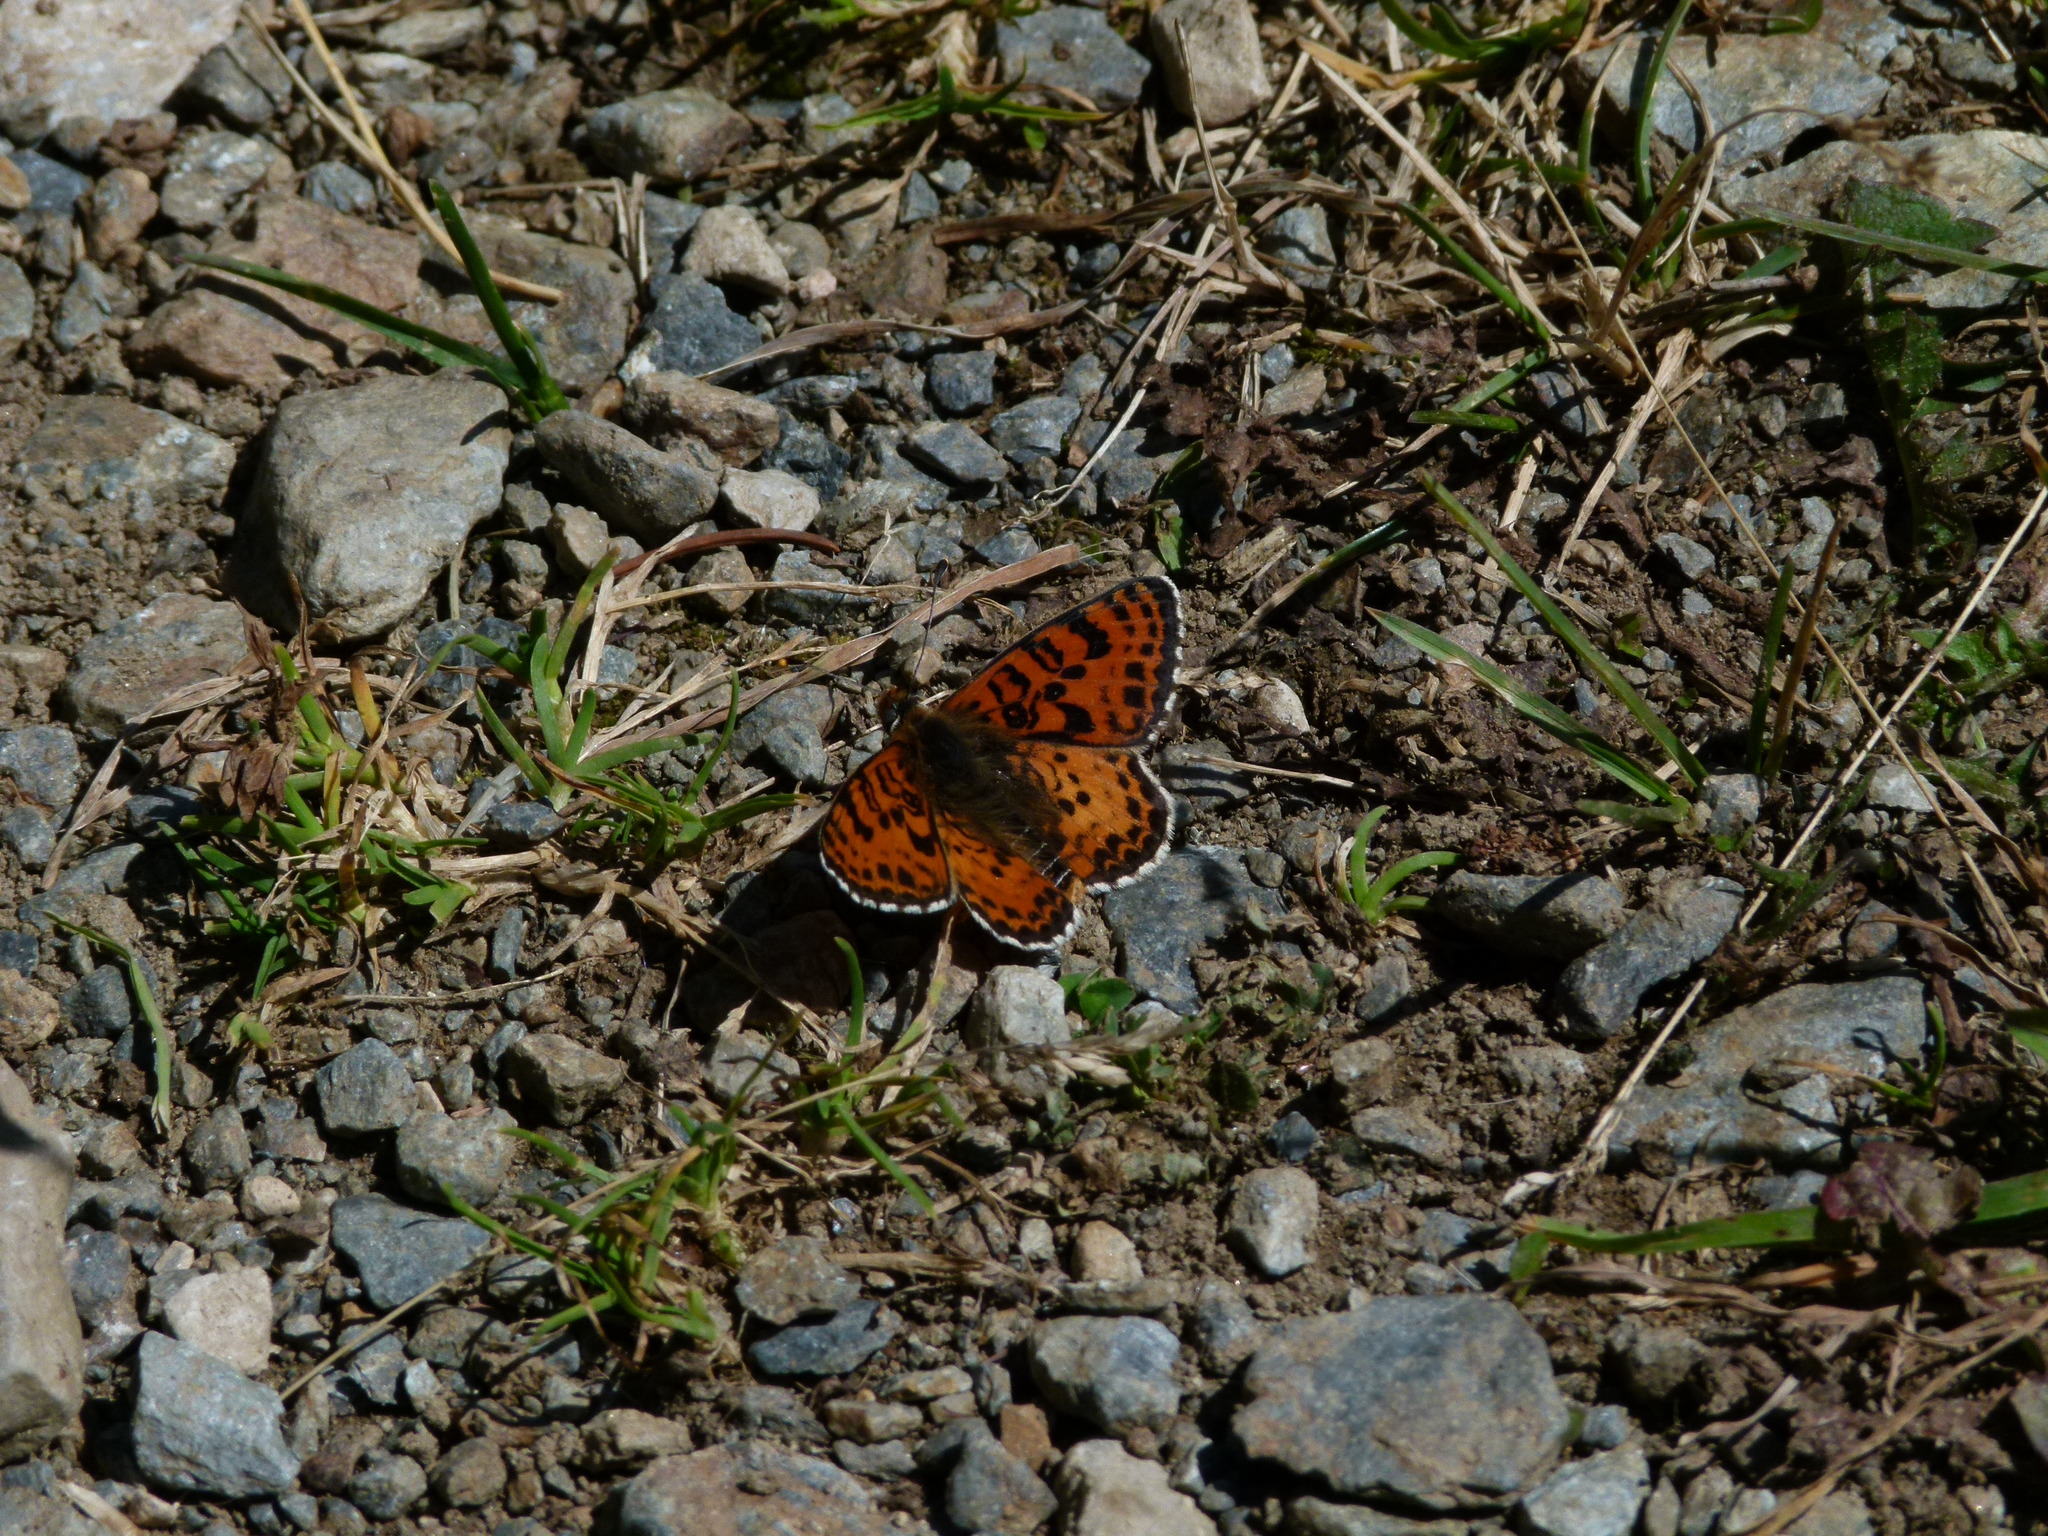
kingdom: Animalia
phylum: Arthropoda
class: Insecta
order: Lepidoptera
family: Nymphalidae
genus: Melitaea
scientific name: Melitaea didyma
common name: Spotted fritillary
